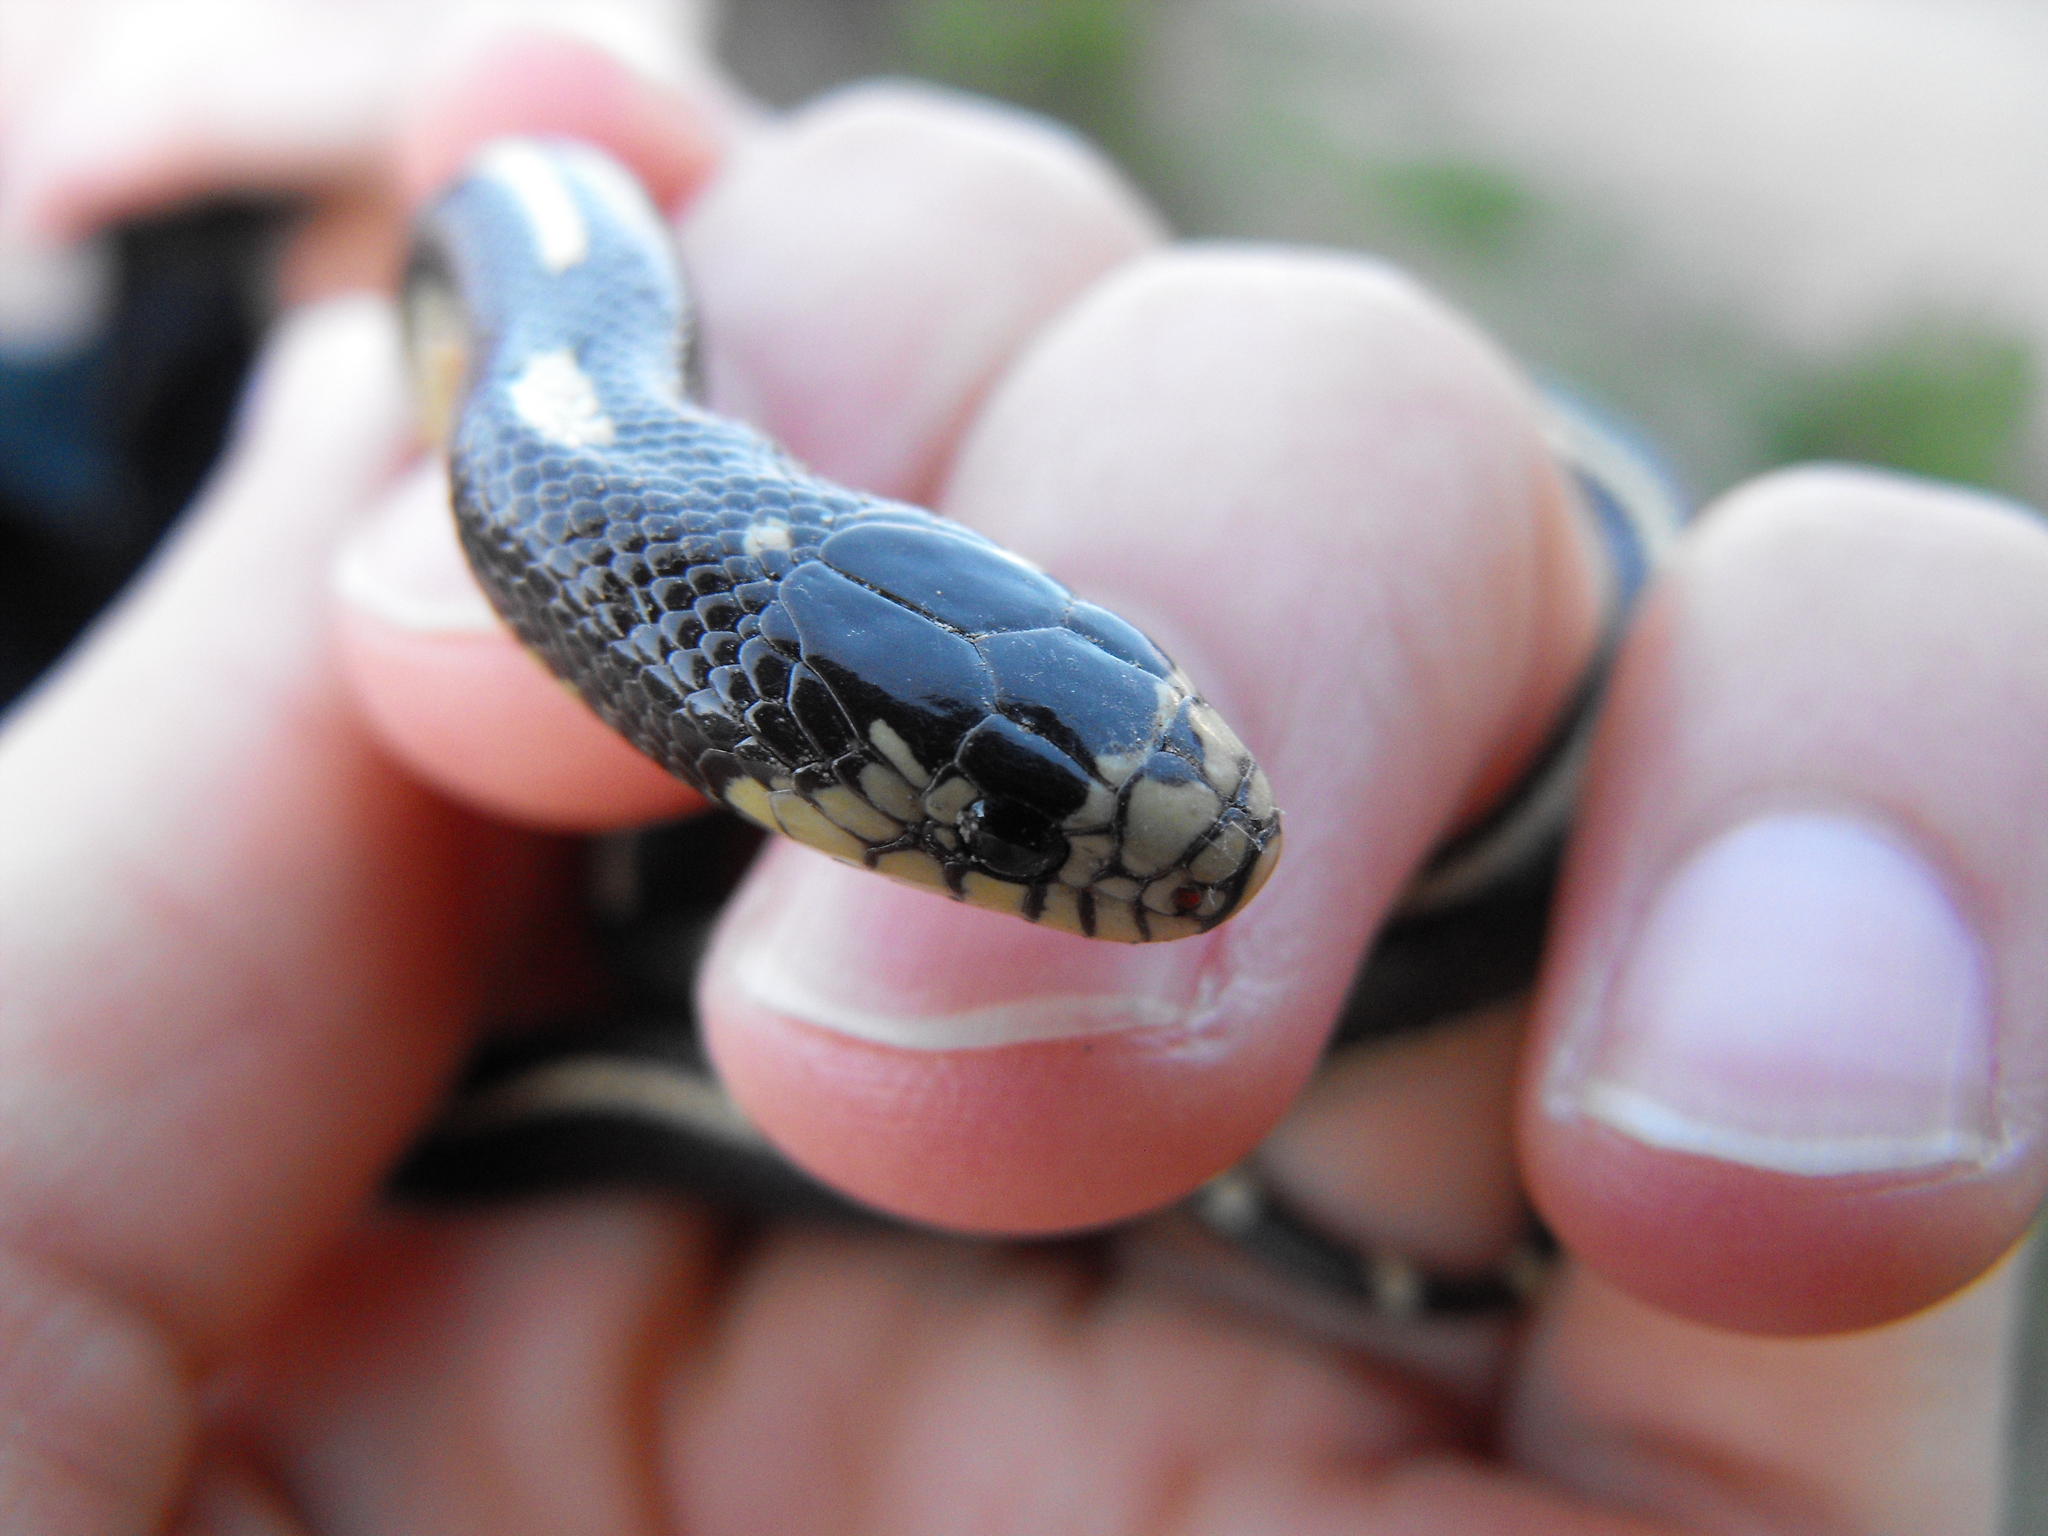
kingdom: Animalia
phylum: Chordata
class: Squamata
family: Colubridae
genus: Lampropeltis
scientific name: Lampropeltis californiae
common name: California kingsnake
